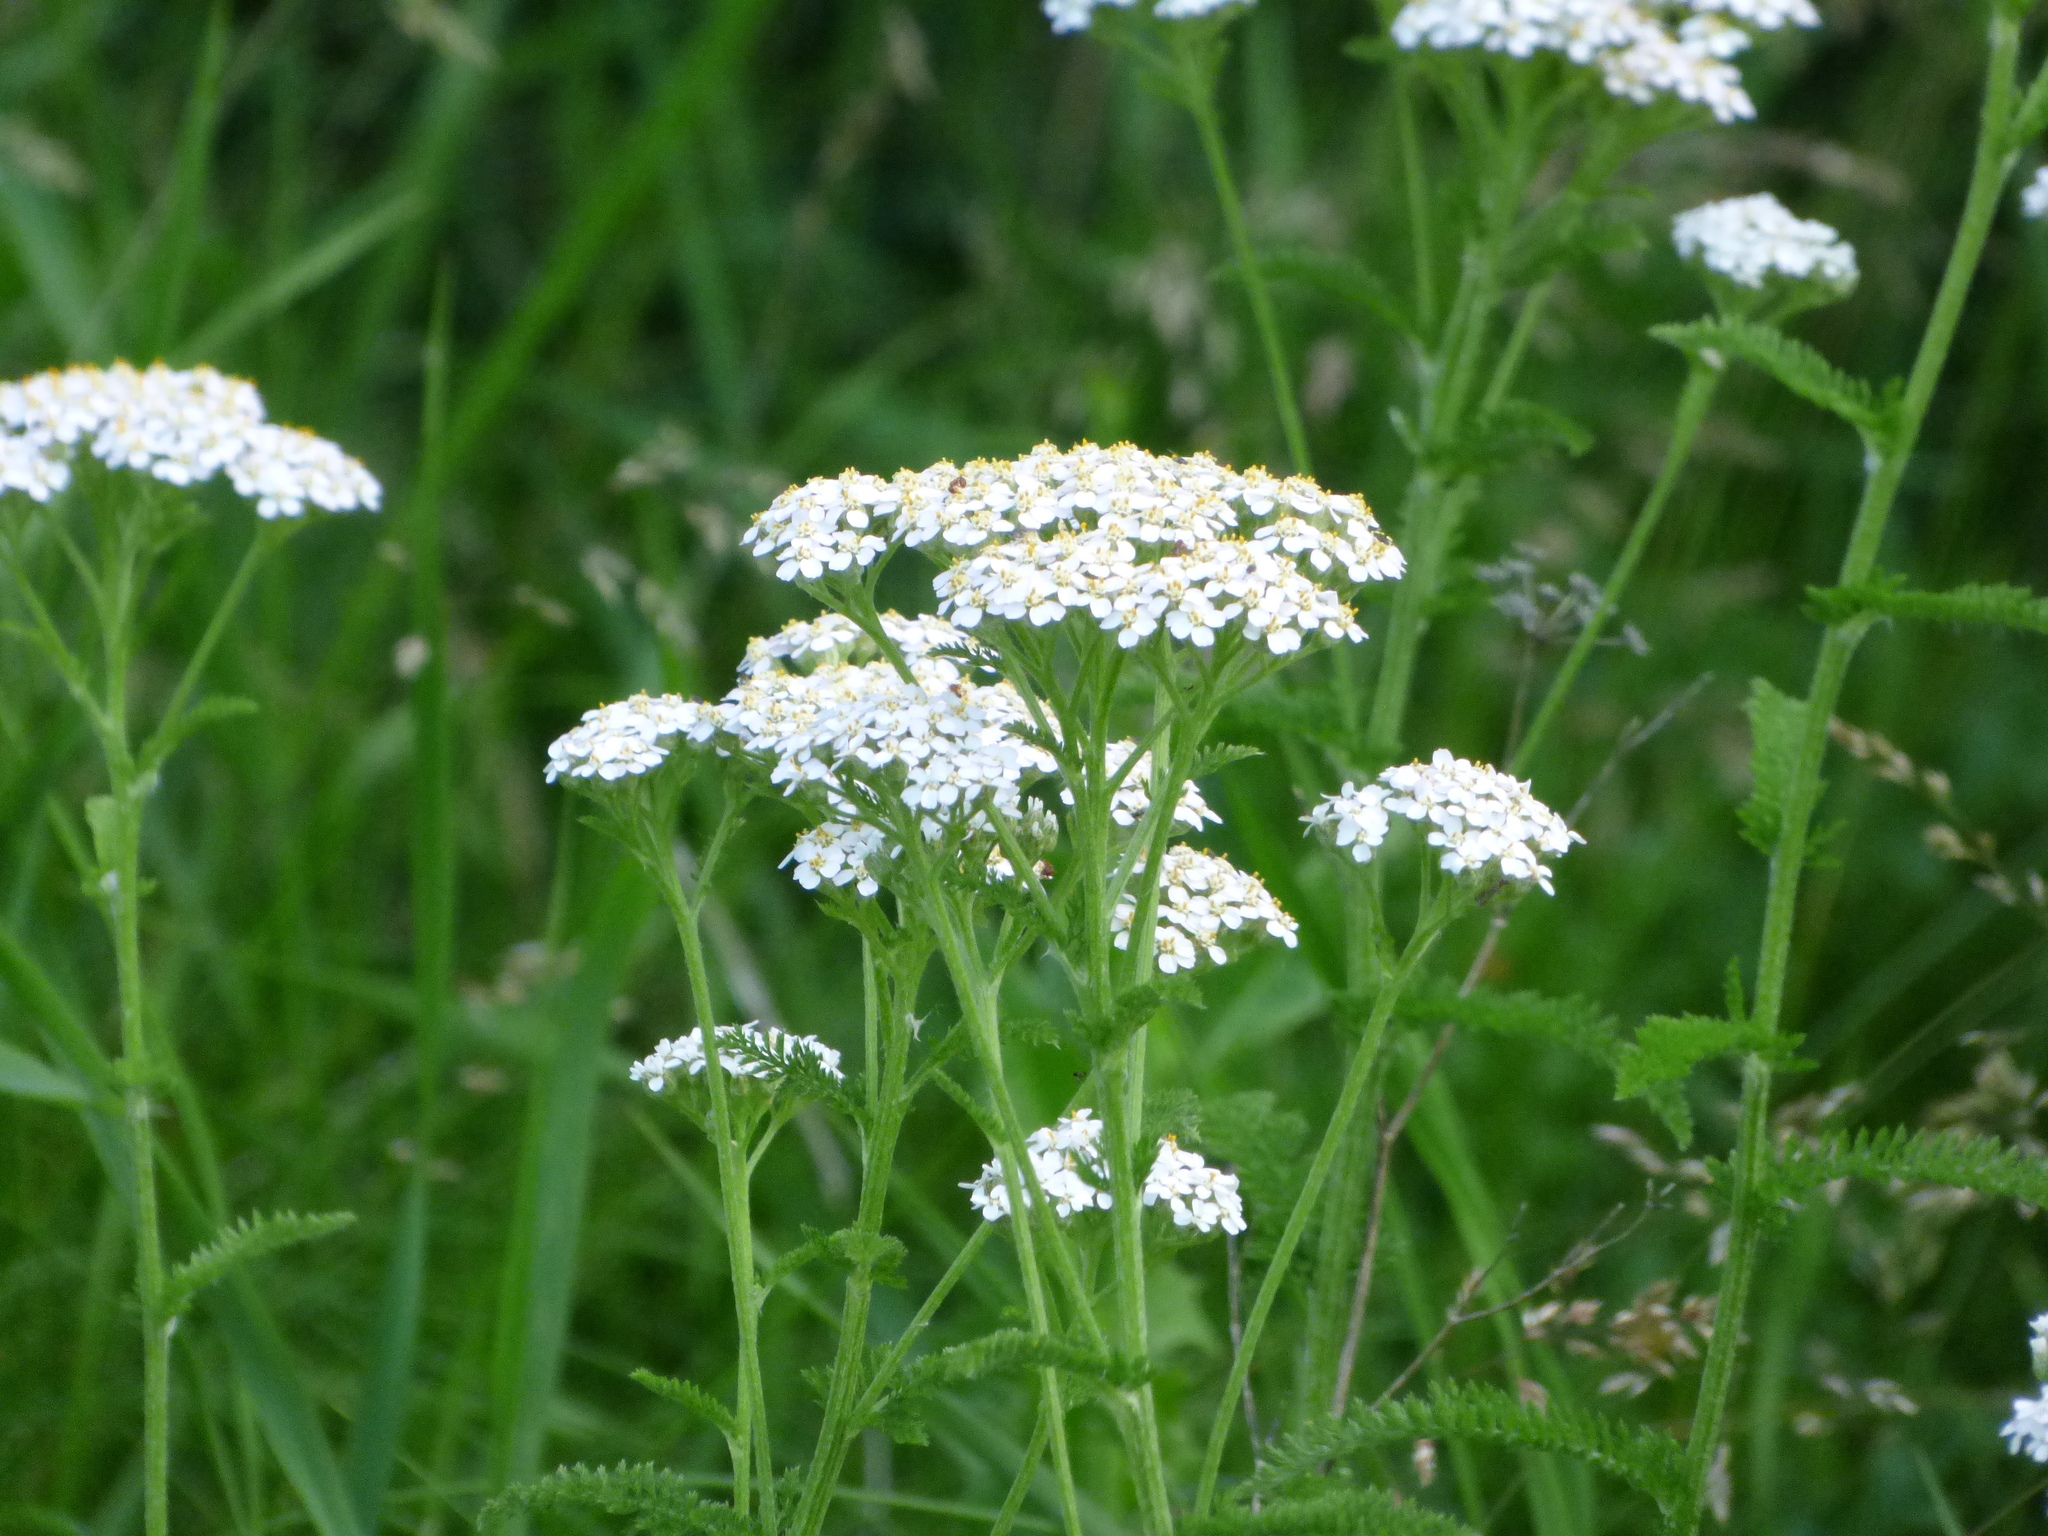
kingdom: Plantae
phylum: Tracheophyta
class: Magnoliopsida
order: Asterales
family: Asteraceae
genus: Achillea
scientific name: Achillea millefolium
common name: Yarrow
